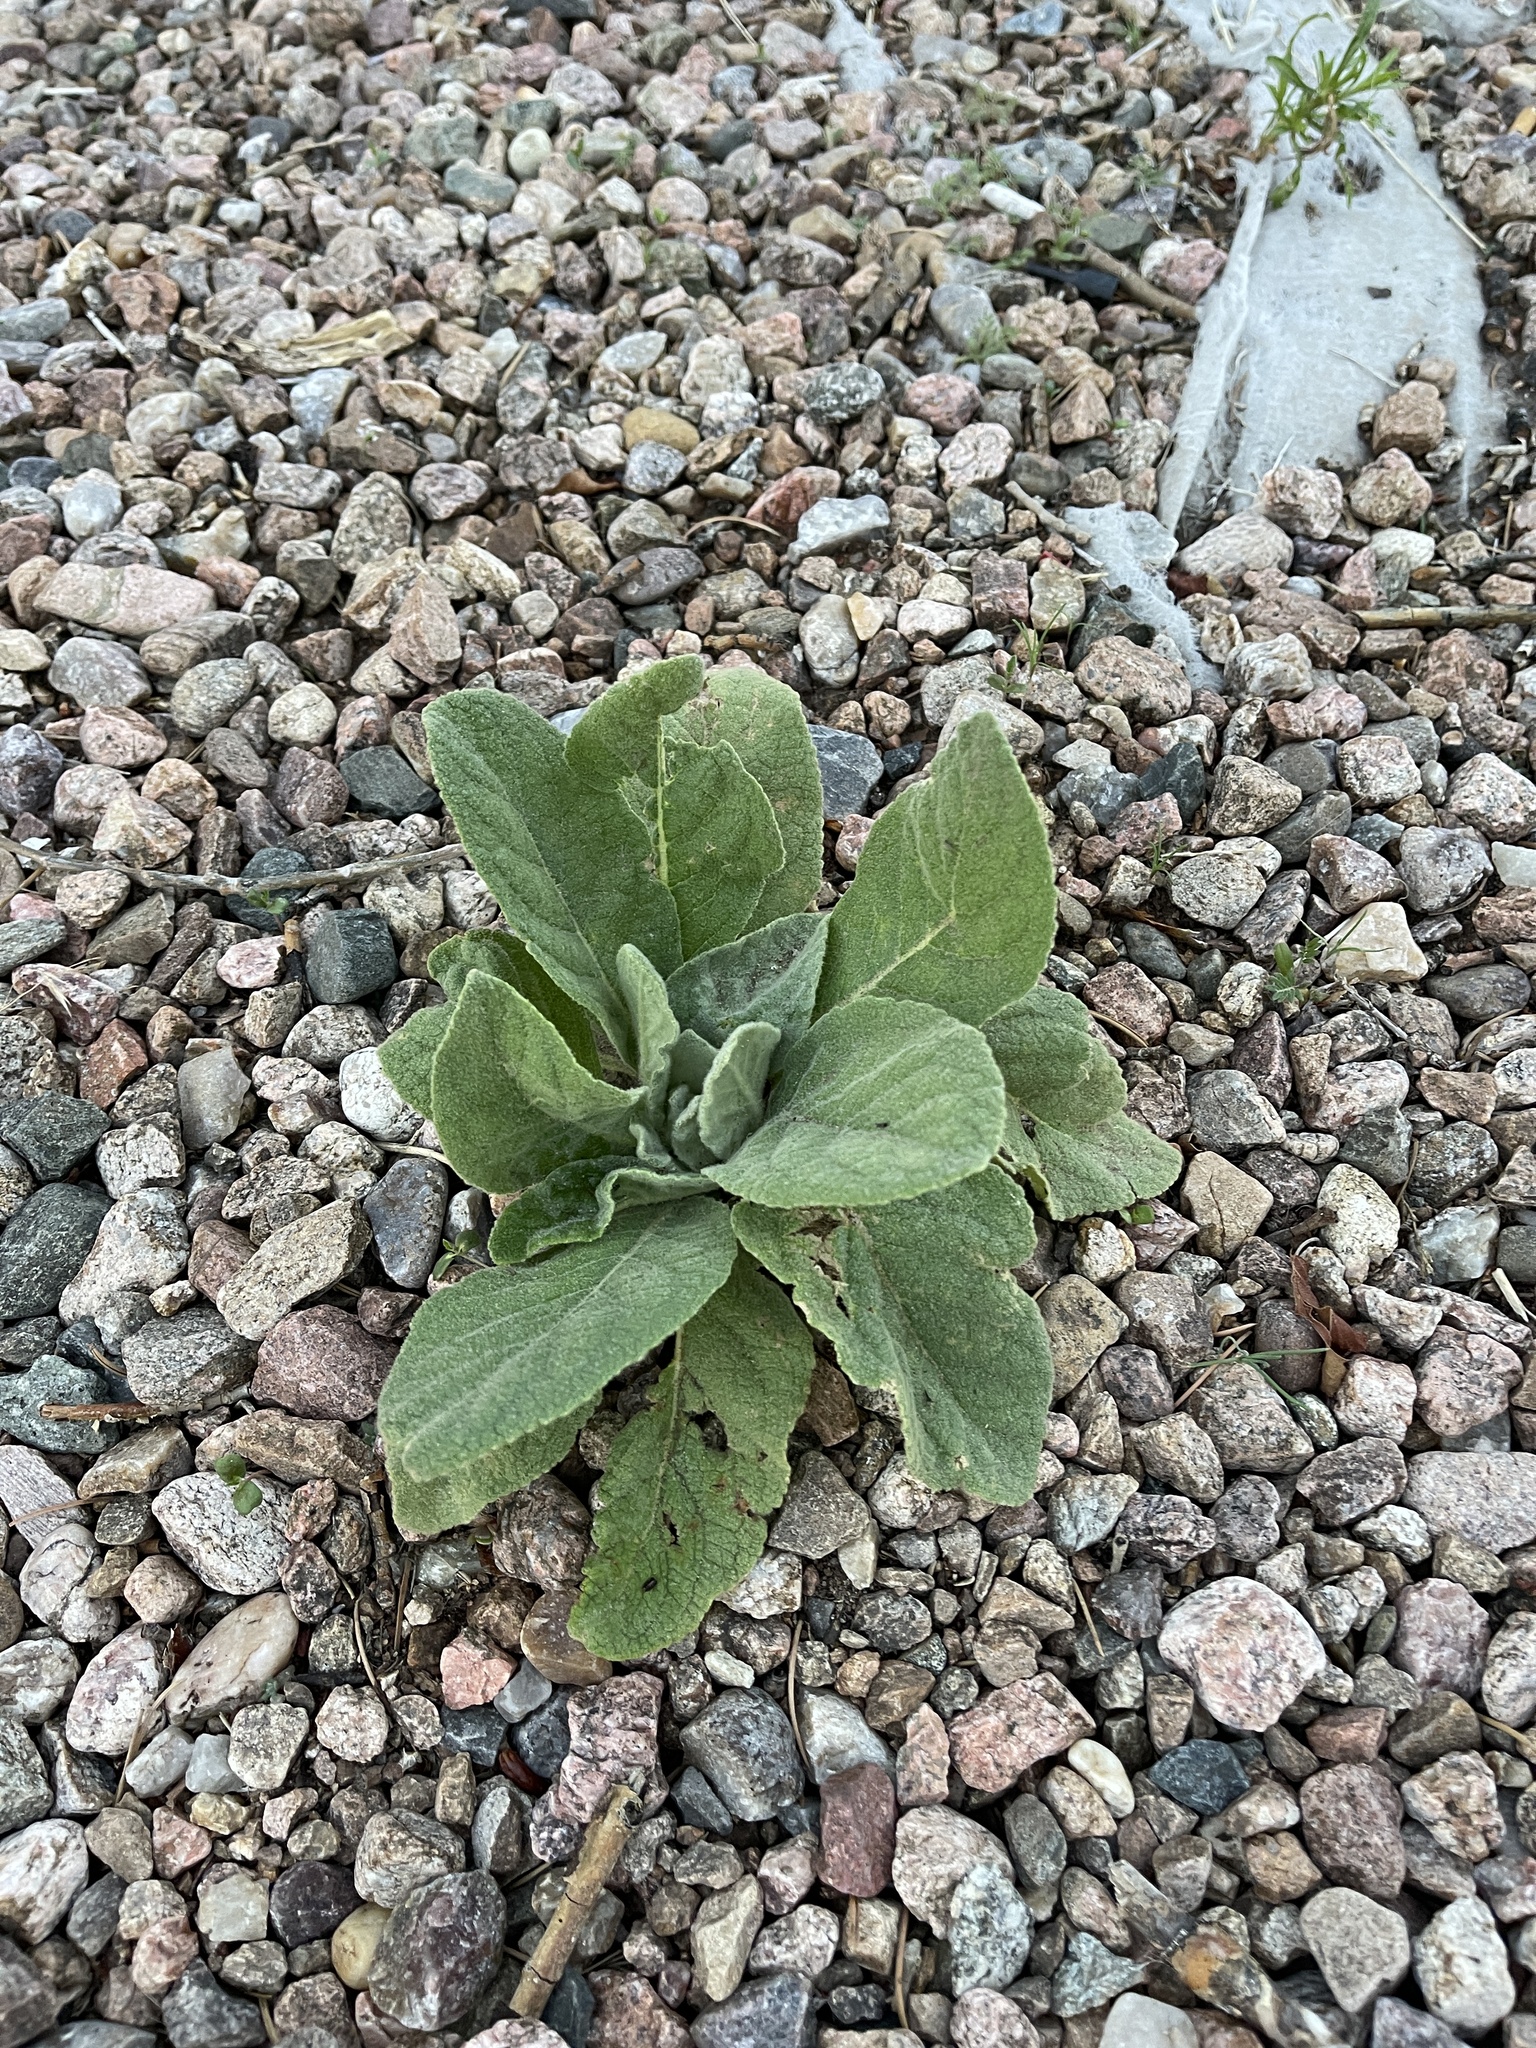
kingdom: Plantae
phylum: Tracheophyta
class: Magnoliopsida
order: Lamiales
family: Scrophulariaceae
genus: Verbascum
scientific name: Verbascum thapsus
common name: Common mullein
